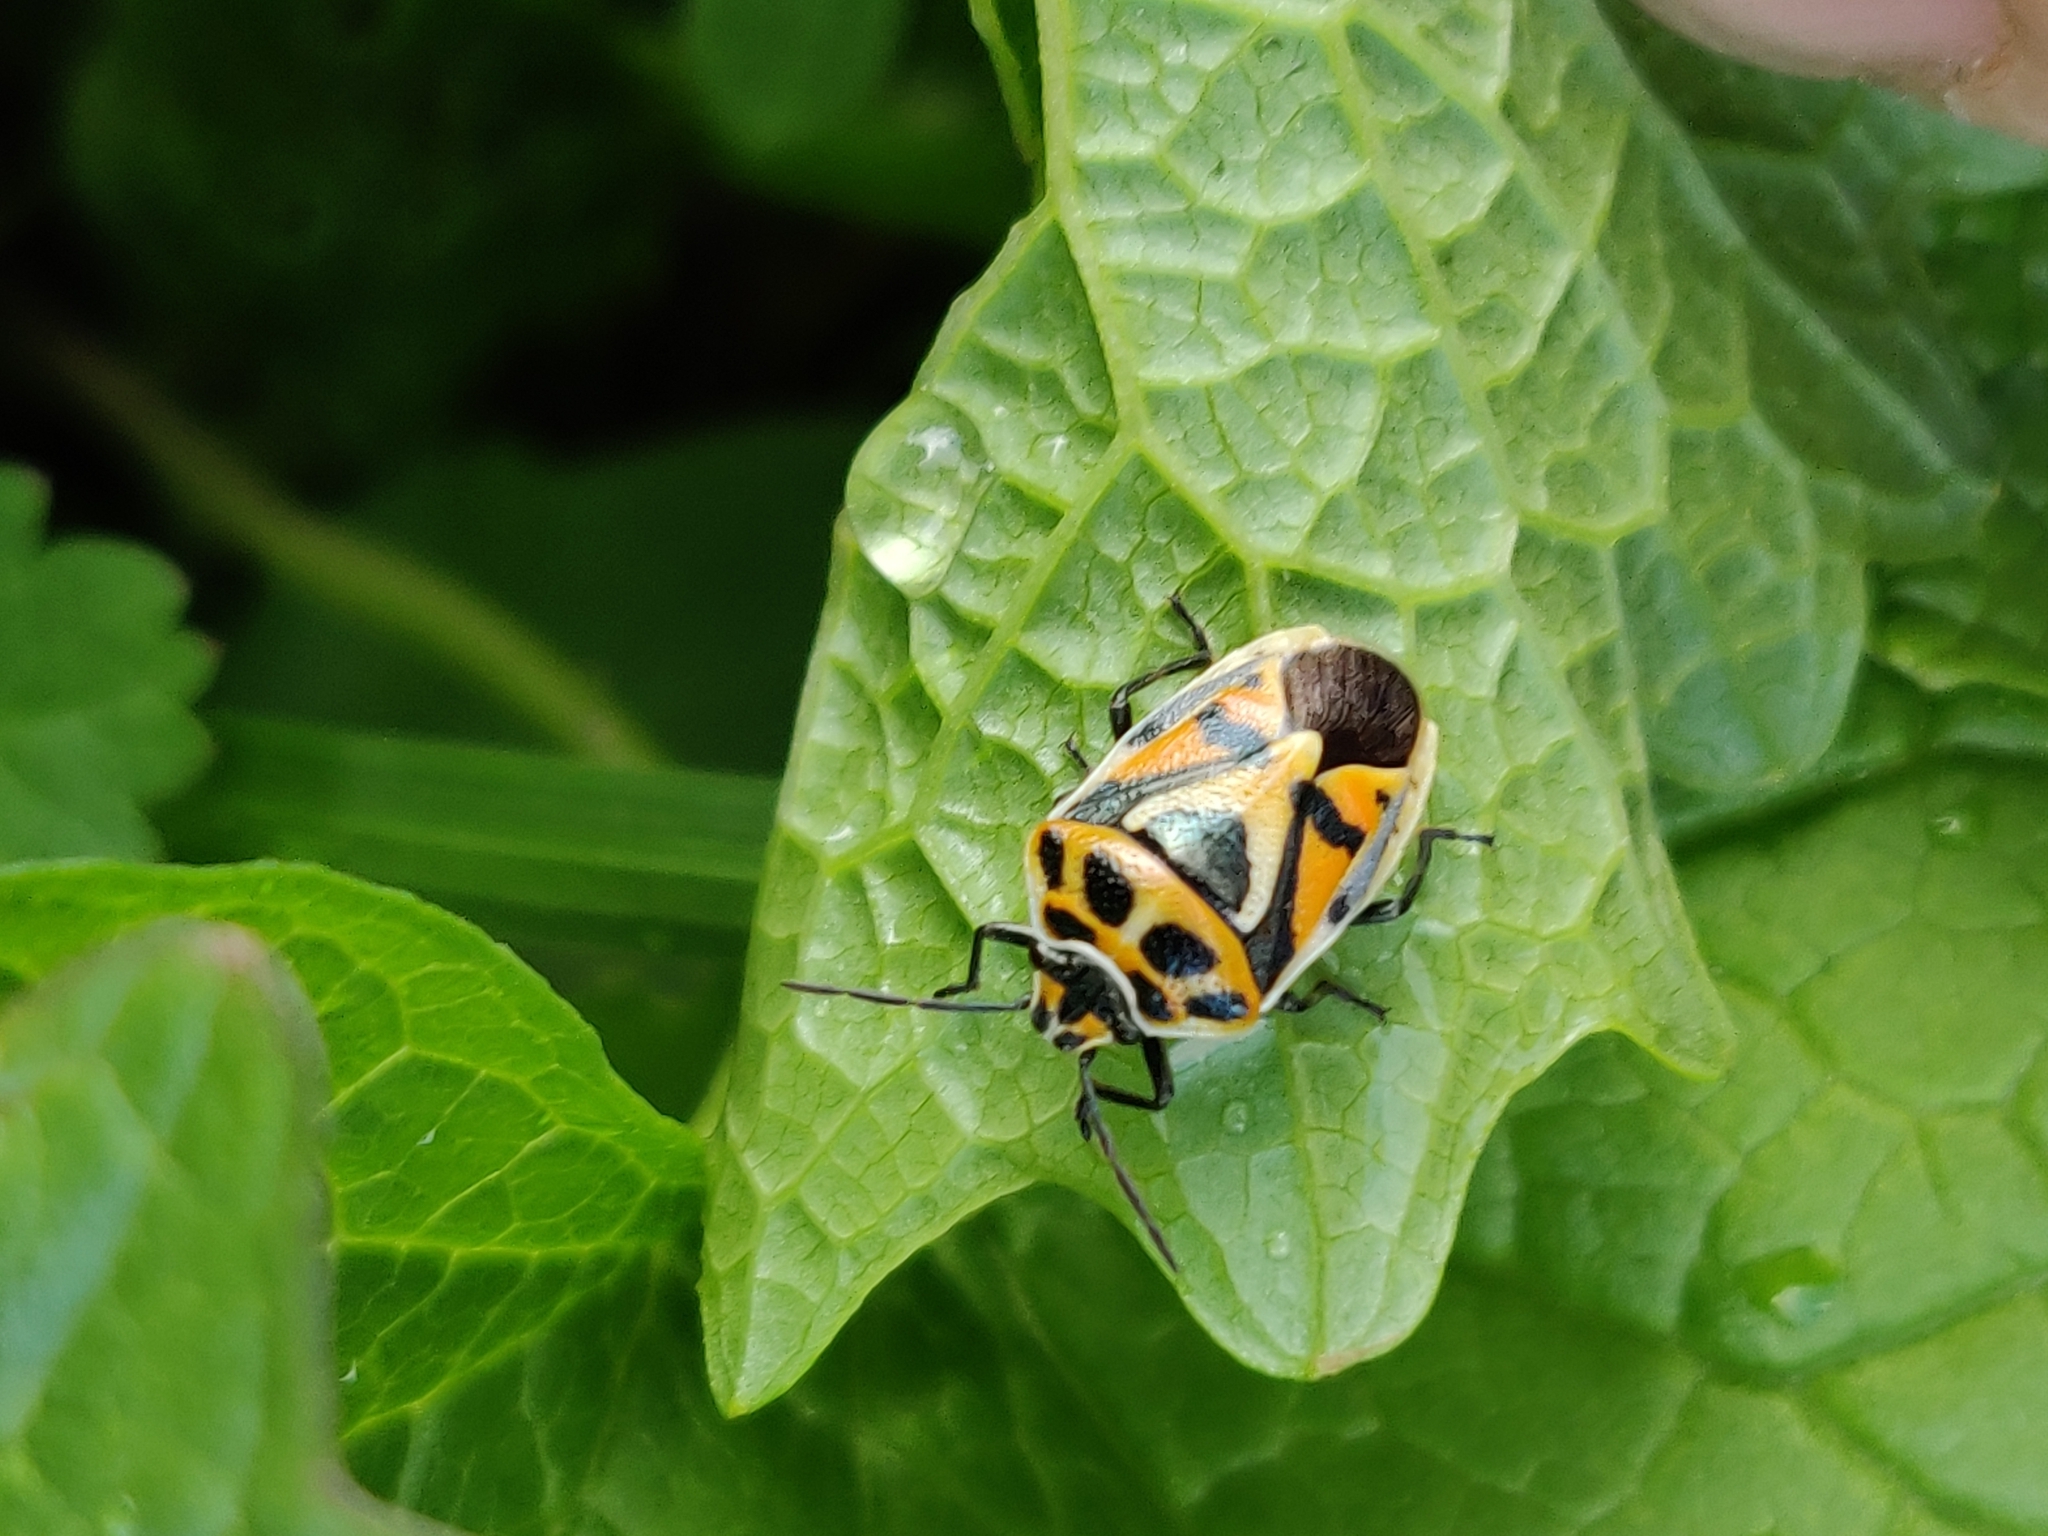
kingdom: Animalia
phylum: Arthropoda
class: Insecta
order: Hemiptera
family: Pentatomidae
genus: Eurydema
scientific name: Eurydema ornata
